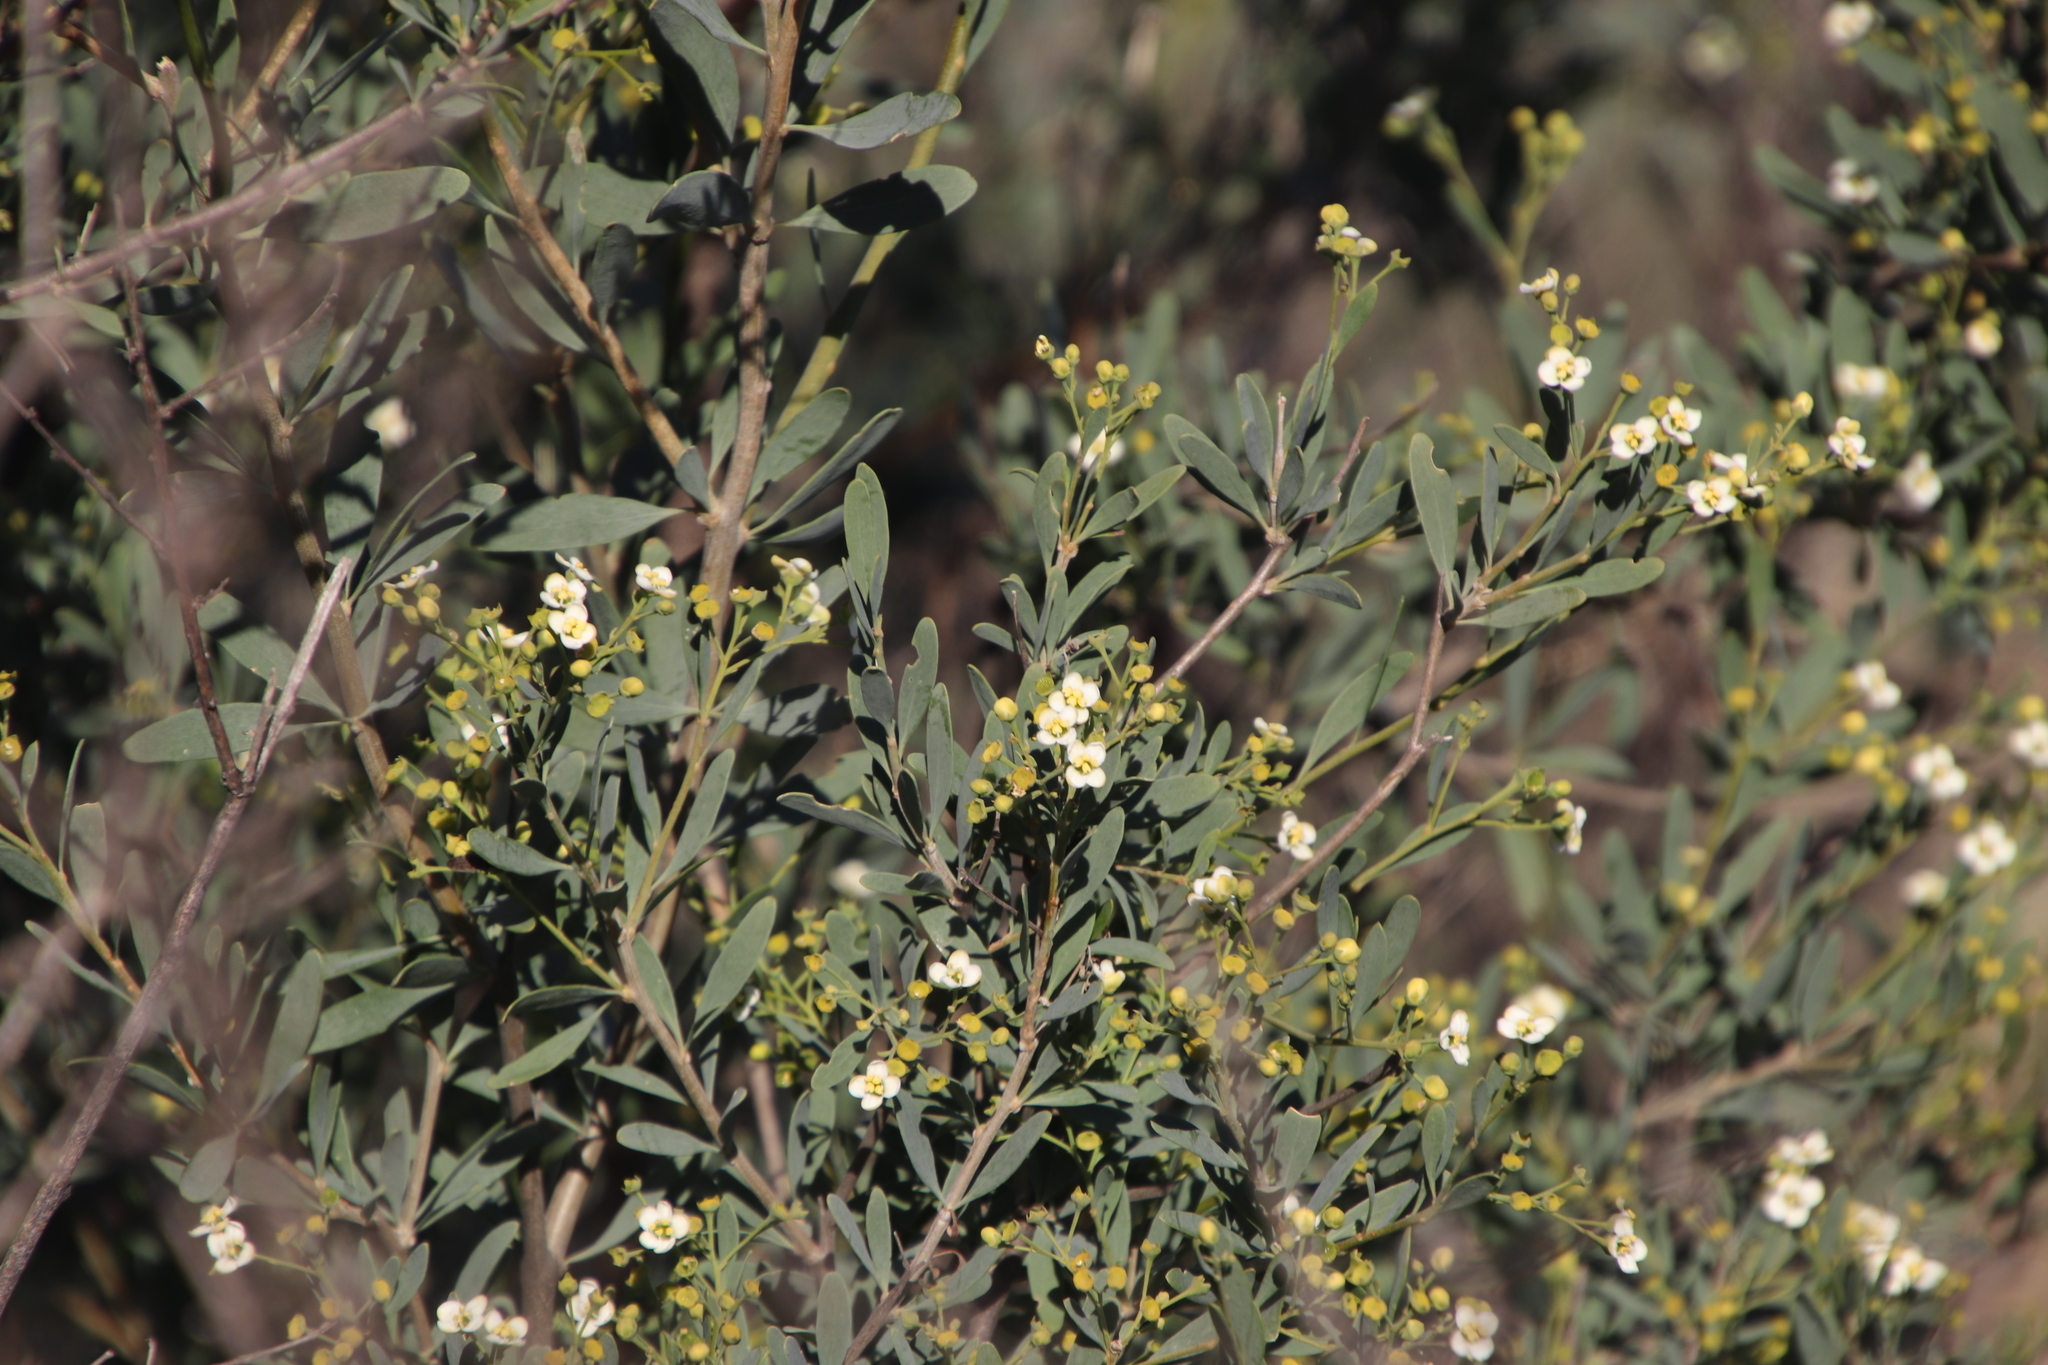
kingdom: Plantae
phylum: Tracheophyta
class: Magnoliopsida
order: Solanales
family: Montiniaceae
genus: Montinia
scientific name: Montinia caryophyllacea
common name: Wild clove-bush
